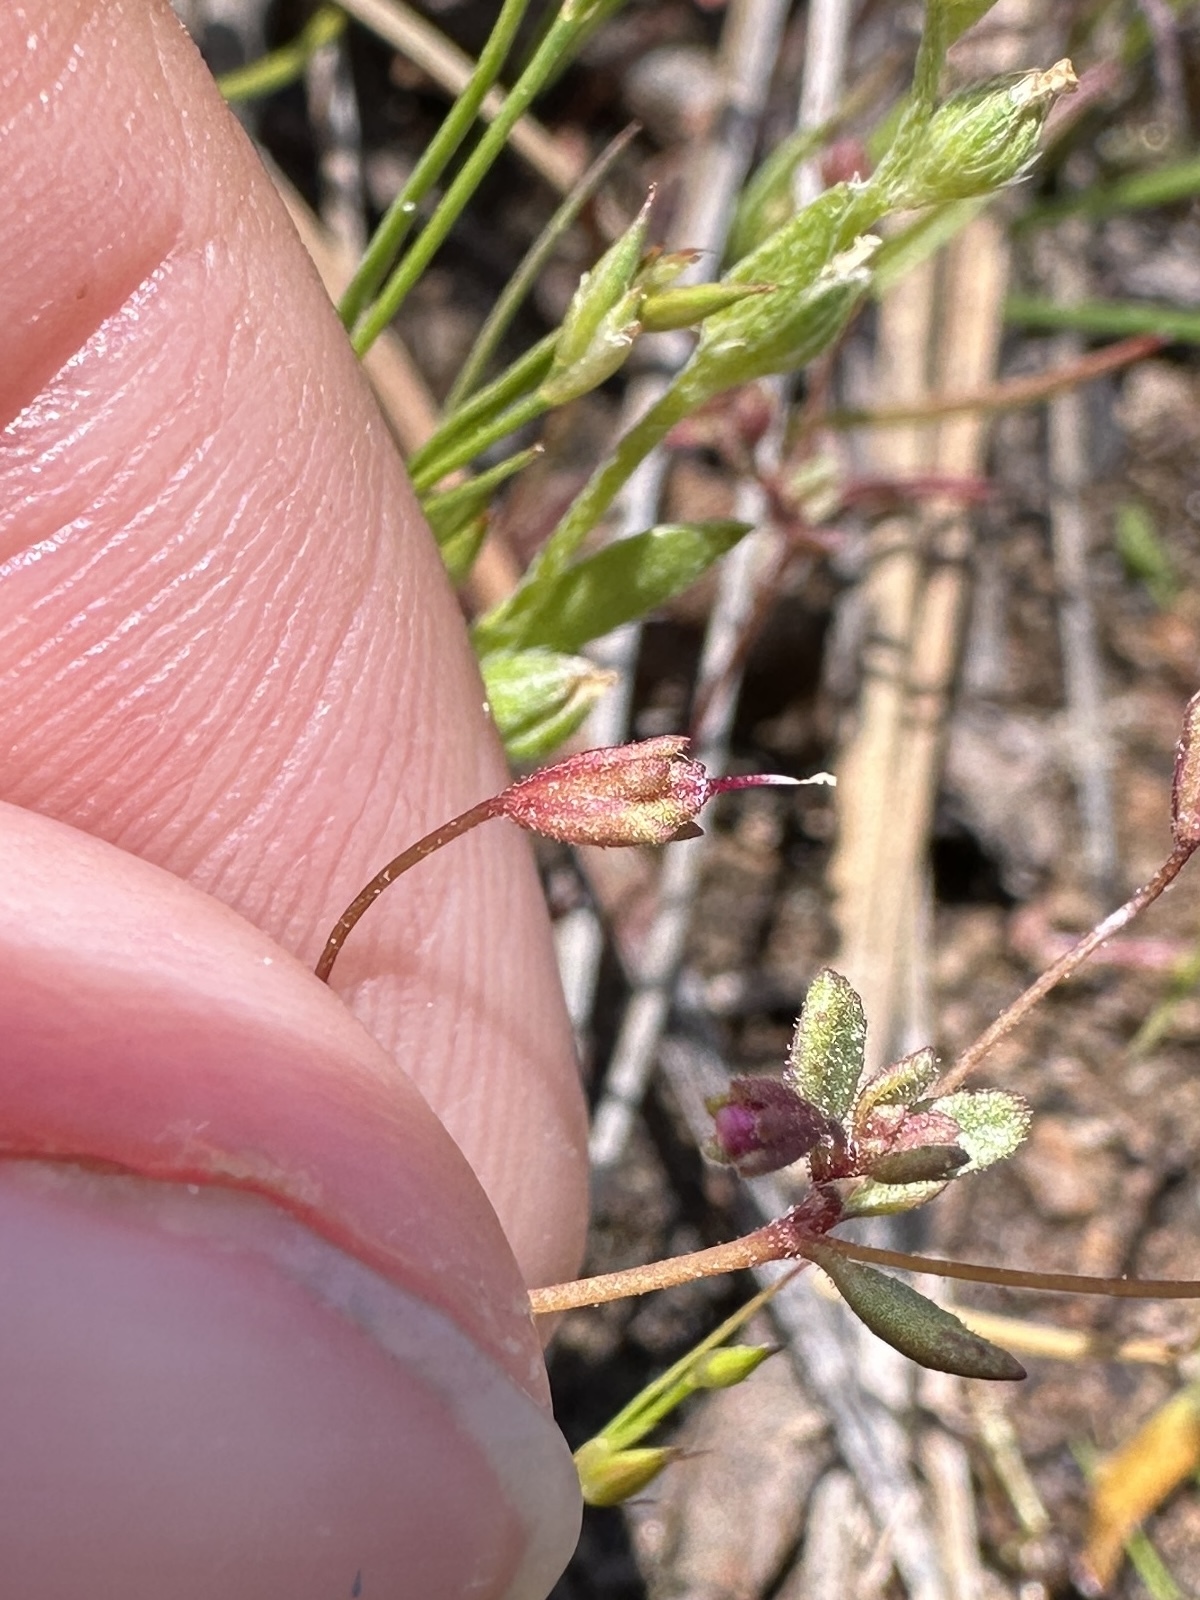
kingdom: Plantae
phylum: Tracheophyta
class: Magnoliopsida
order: Lamiales
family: Phrymaceae
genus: Erythranthe
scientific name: Erythranthe exigua
